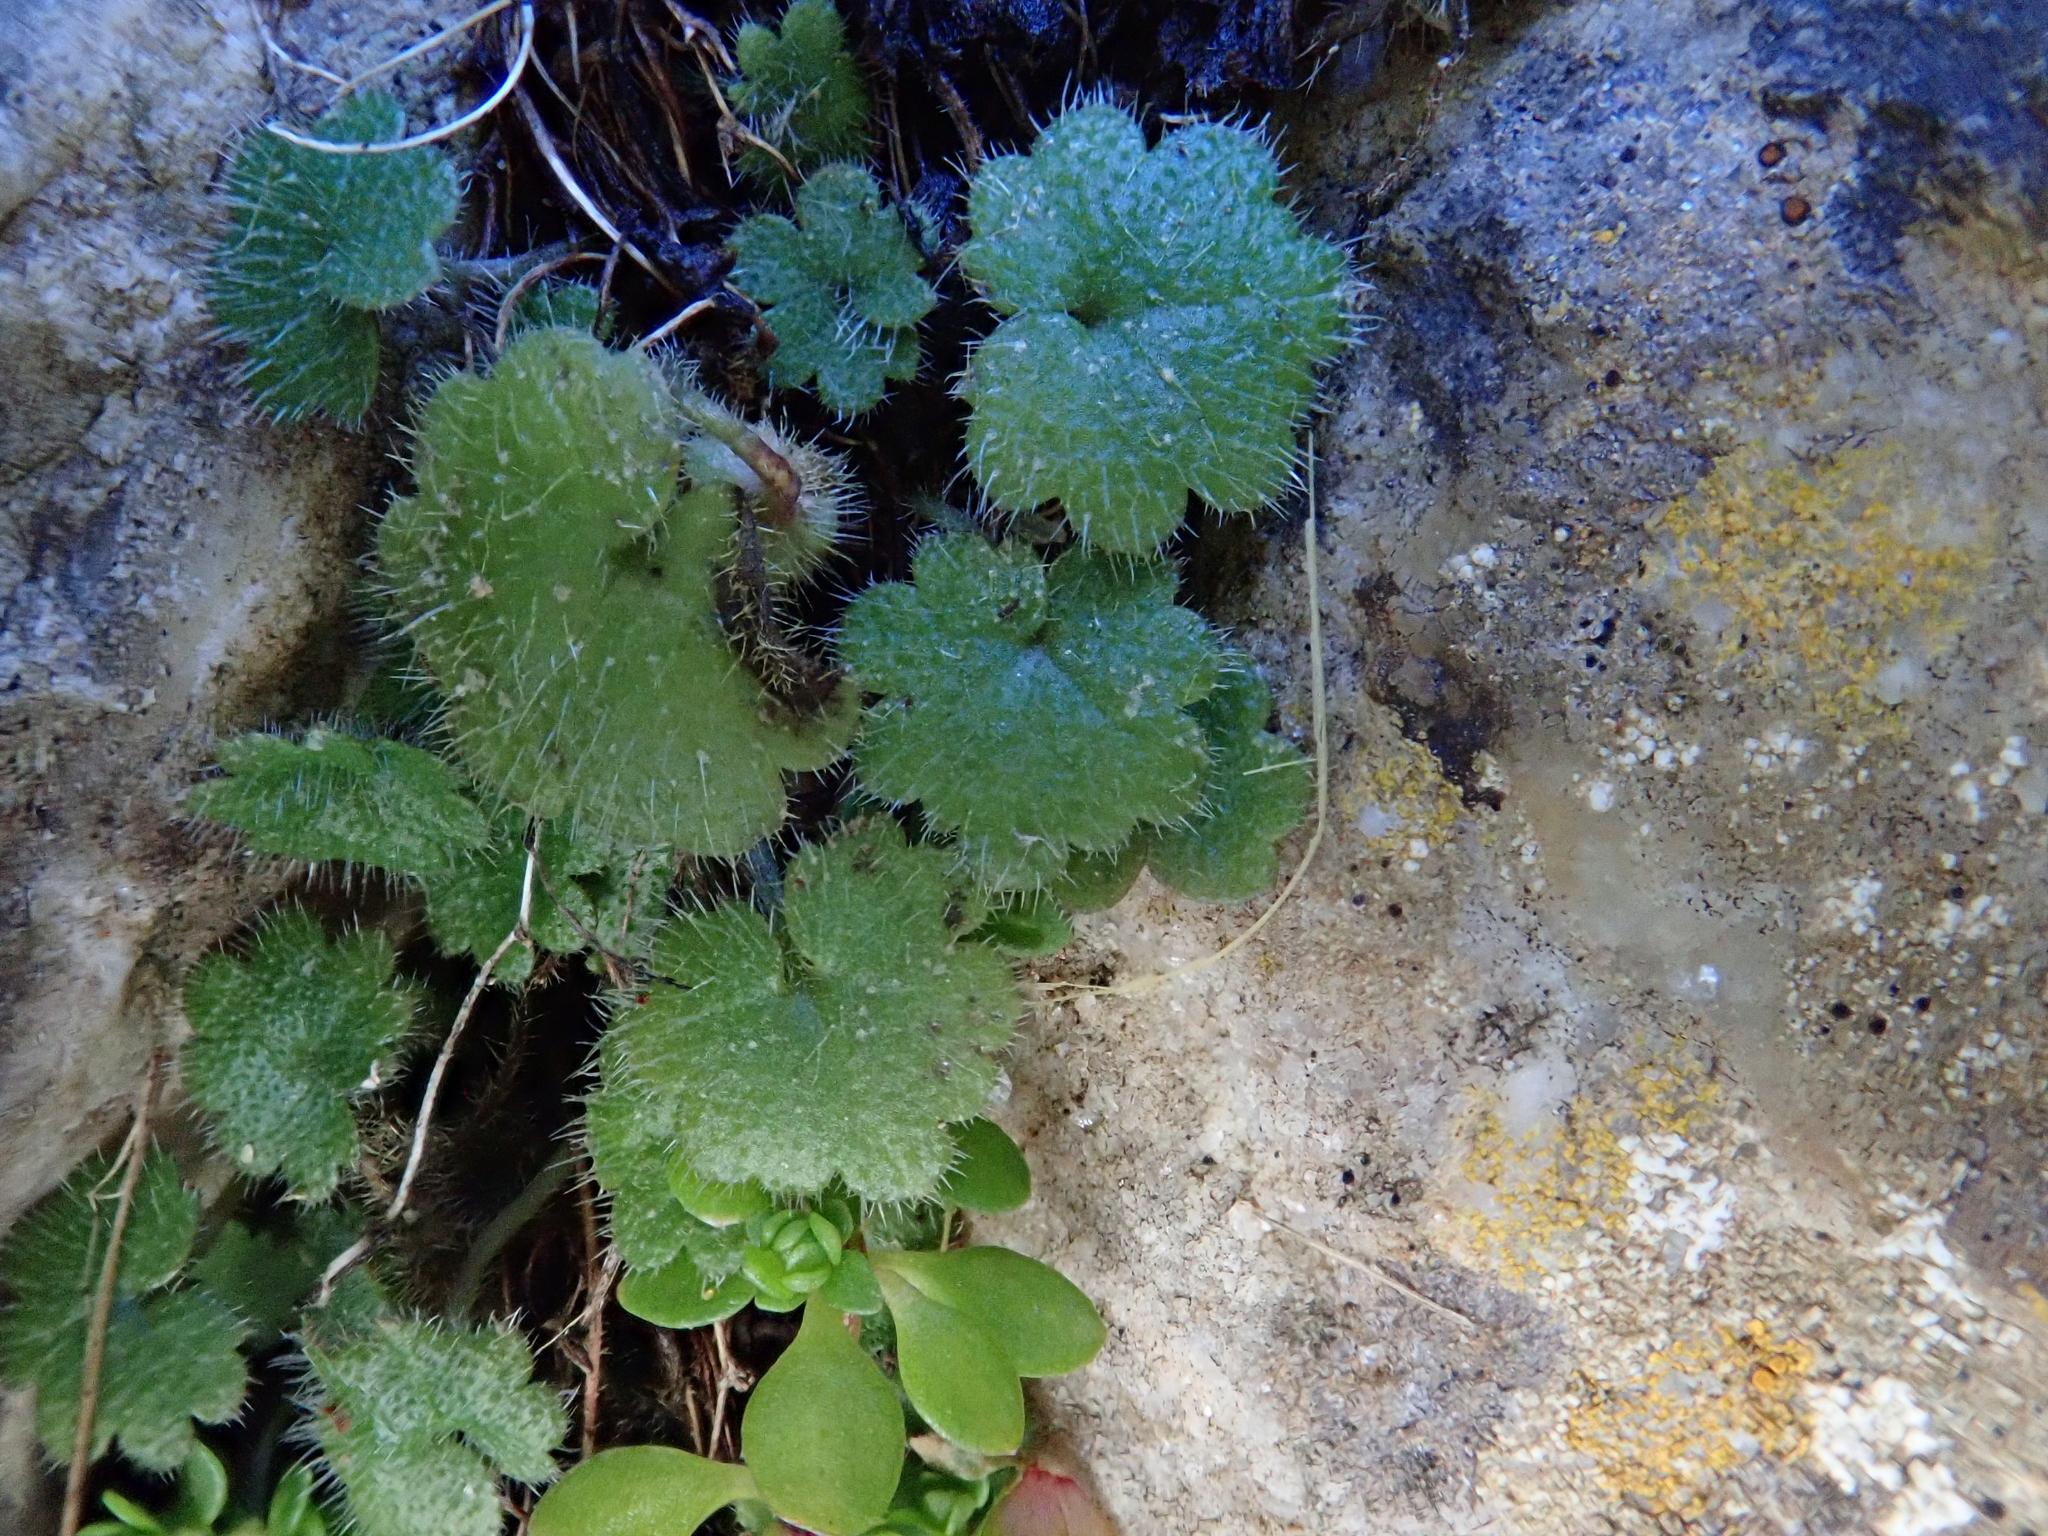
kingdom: Plantae
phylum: Tracheophyta
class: Magnoliopsida
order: Lamiales
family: Plantaginaceae
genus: Sibthorpia
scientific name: Sibthorpia africana
